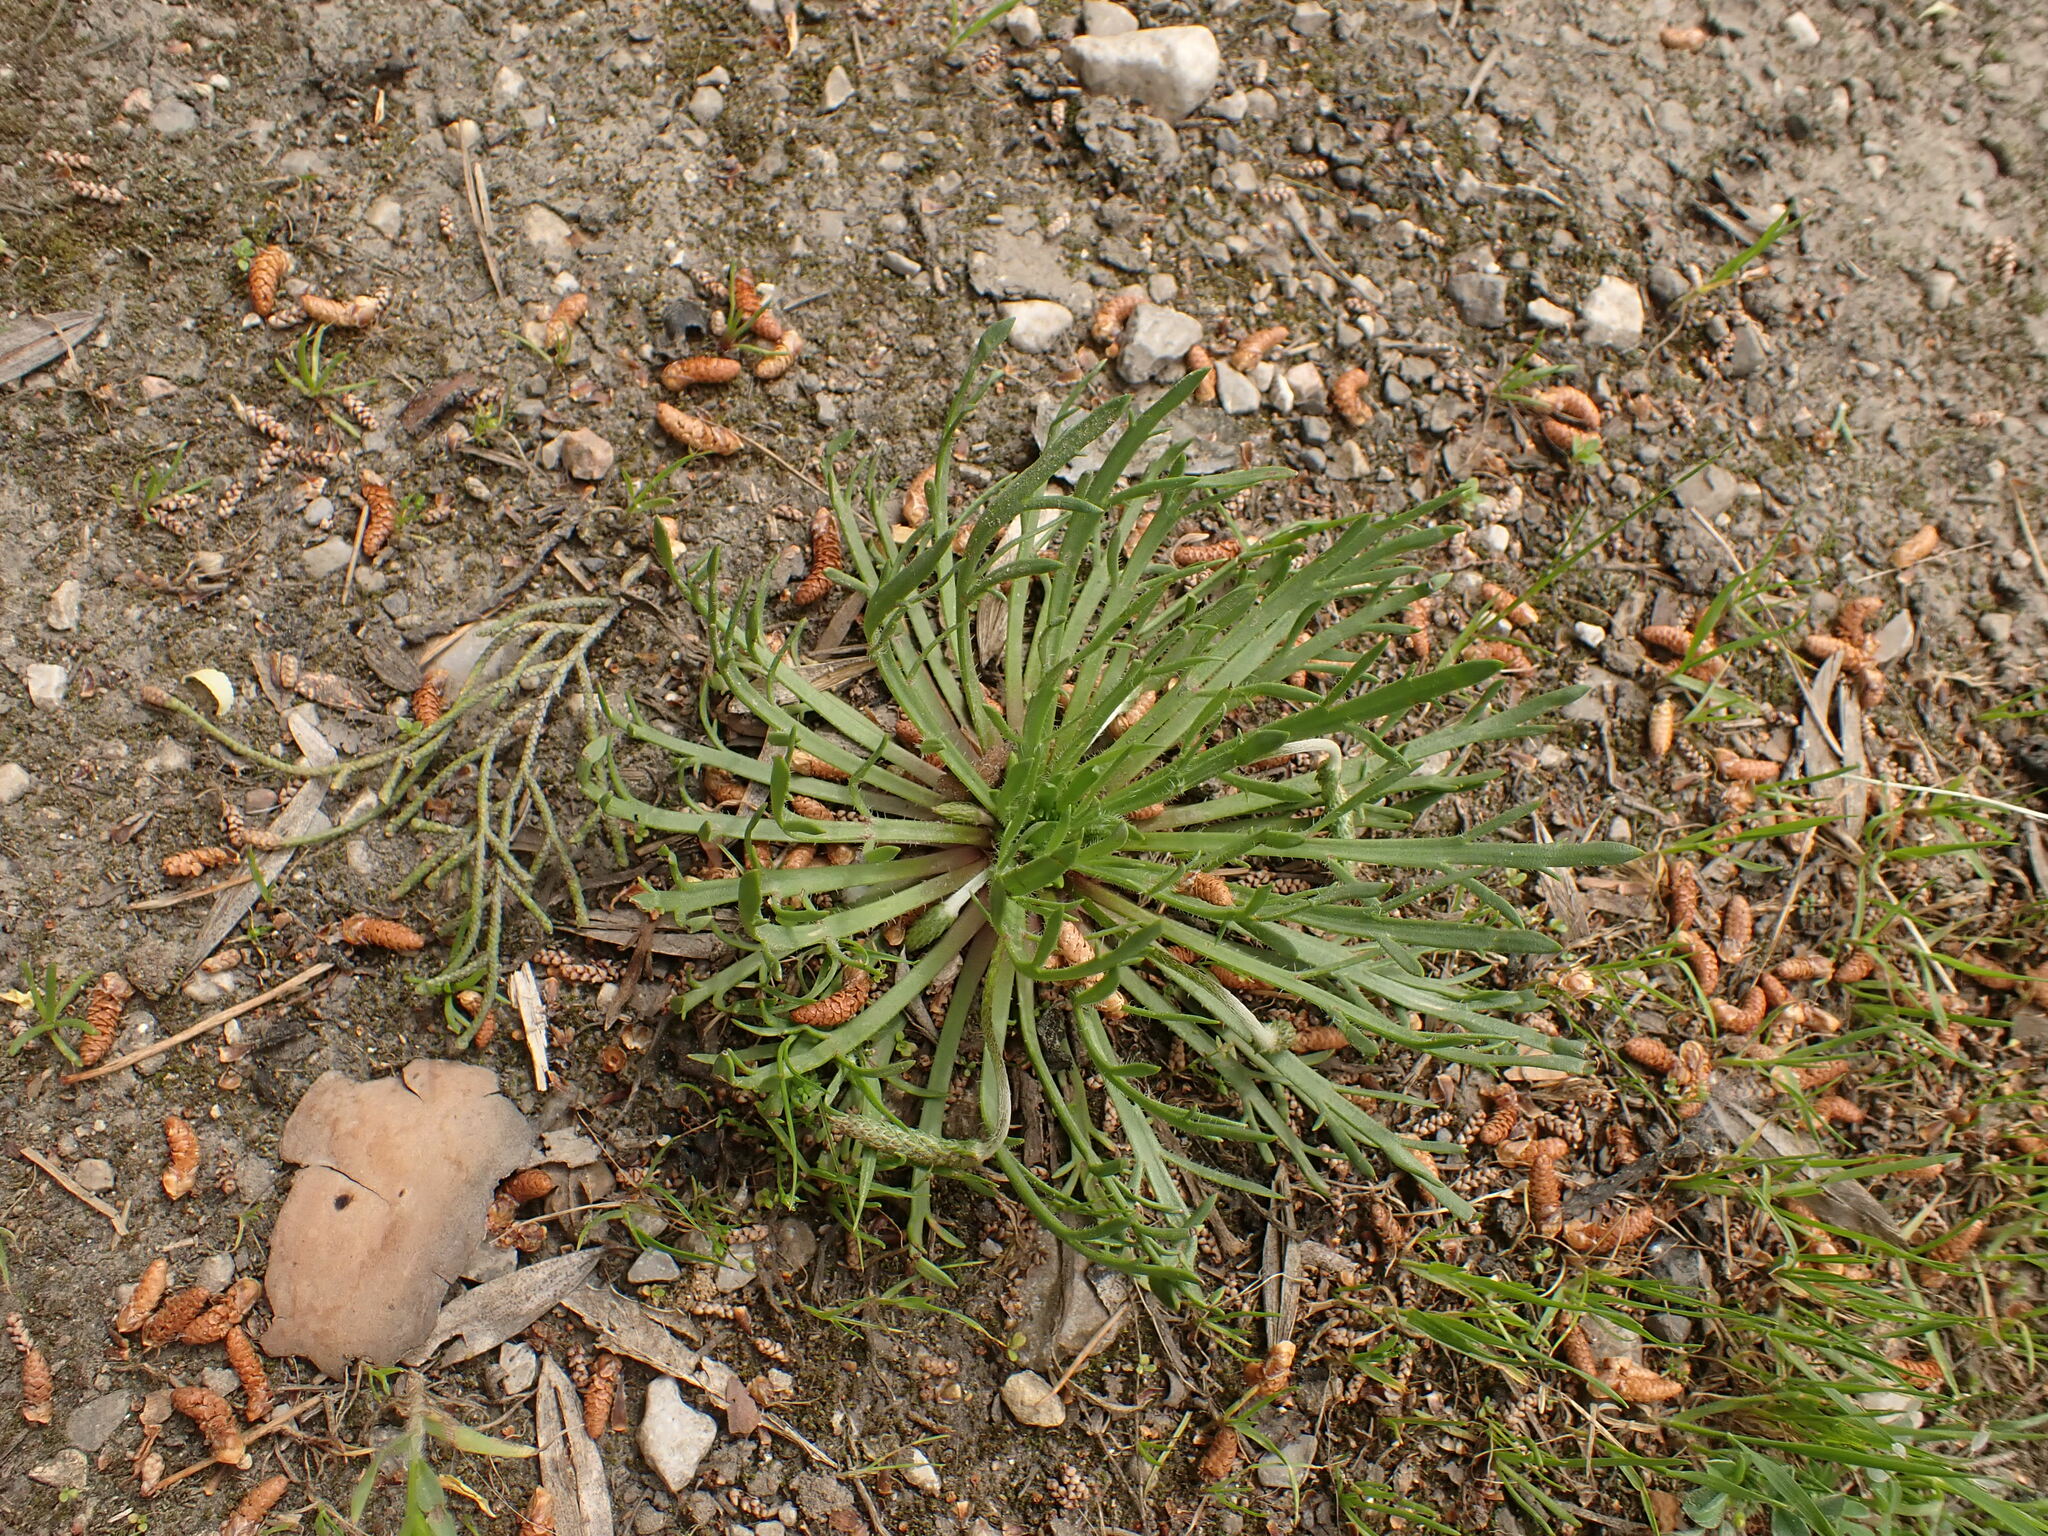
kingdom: Plantae
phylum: Tracheophyta
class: Magnoliopsida
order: Lamiales
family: Plantaginaceae
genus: Plantago
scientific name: Plantago coronopus
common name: Buck's-horn plantain
